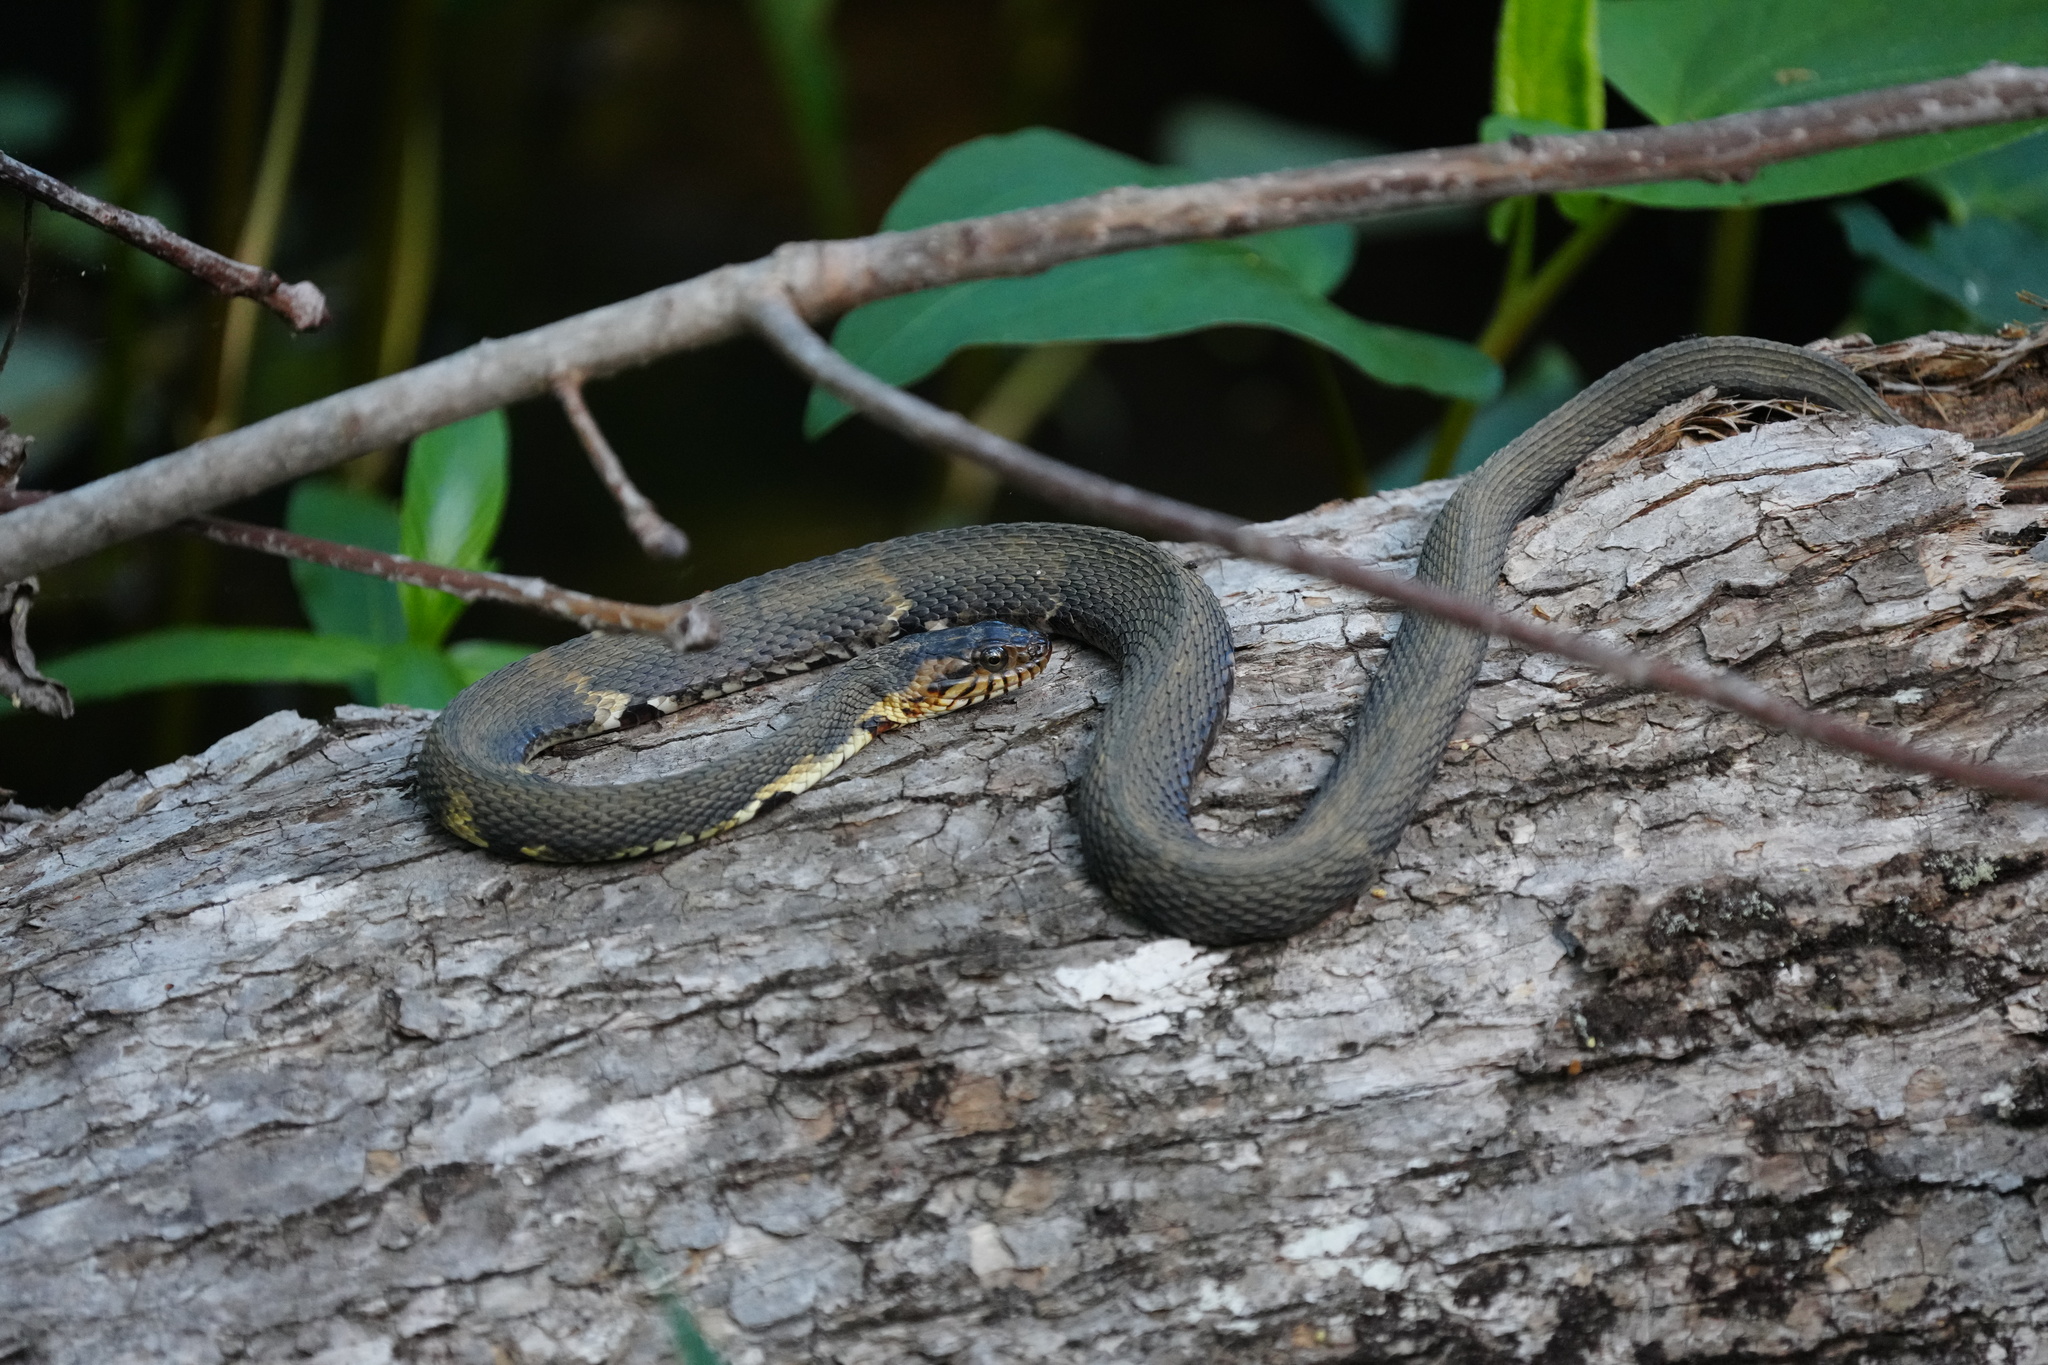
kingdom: Animalia
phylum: Chordata
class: Squamata
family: Colubridae
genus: Nerodia
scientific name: Nerodia fasciata
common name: Southern water snake
